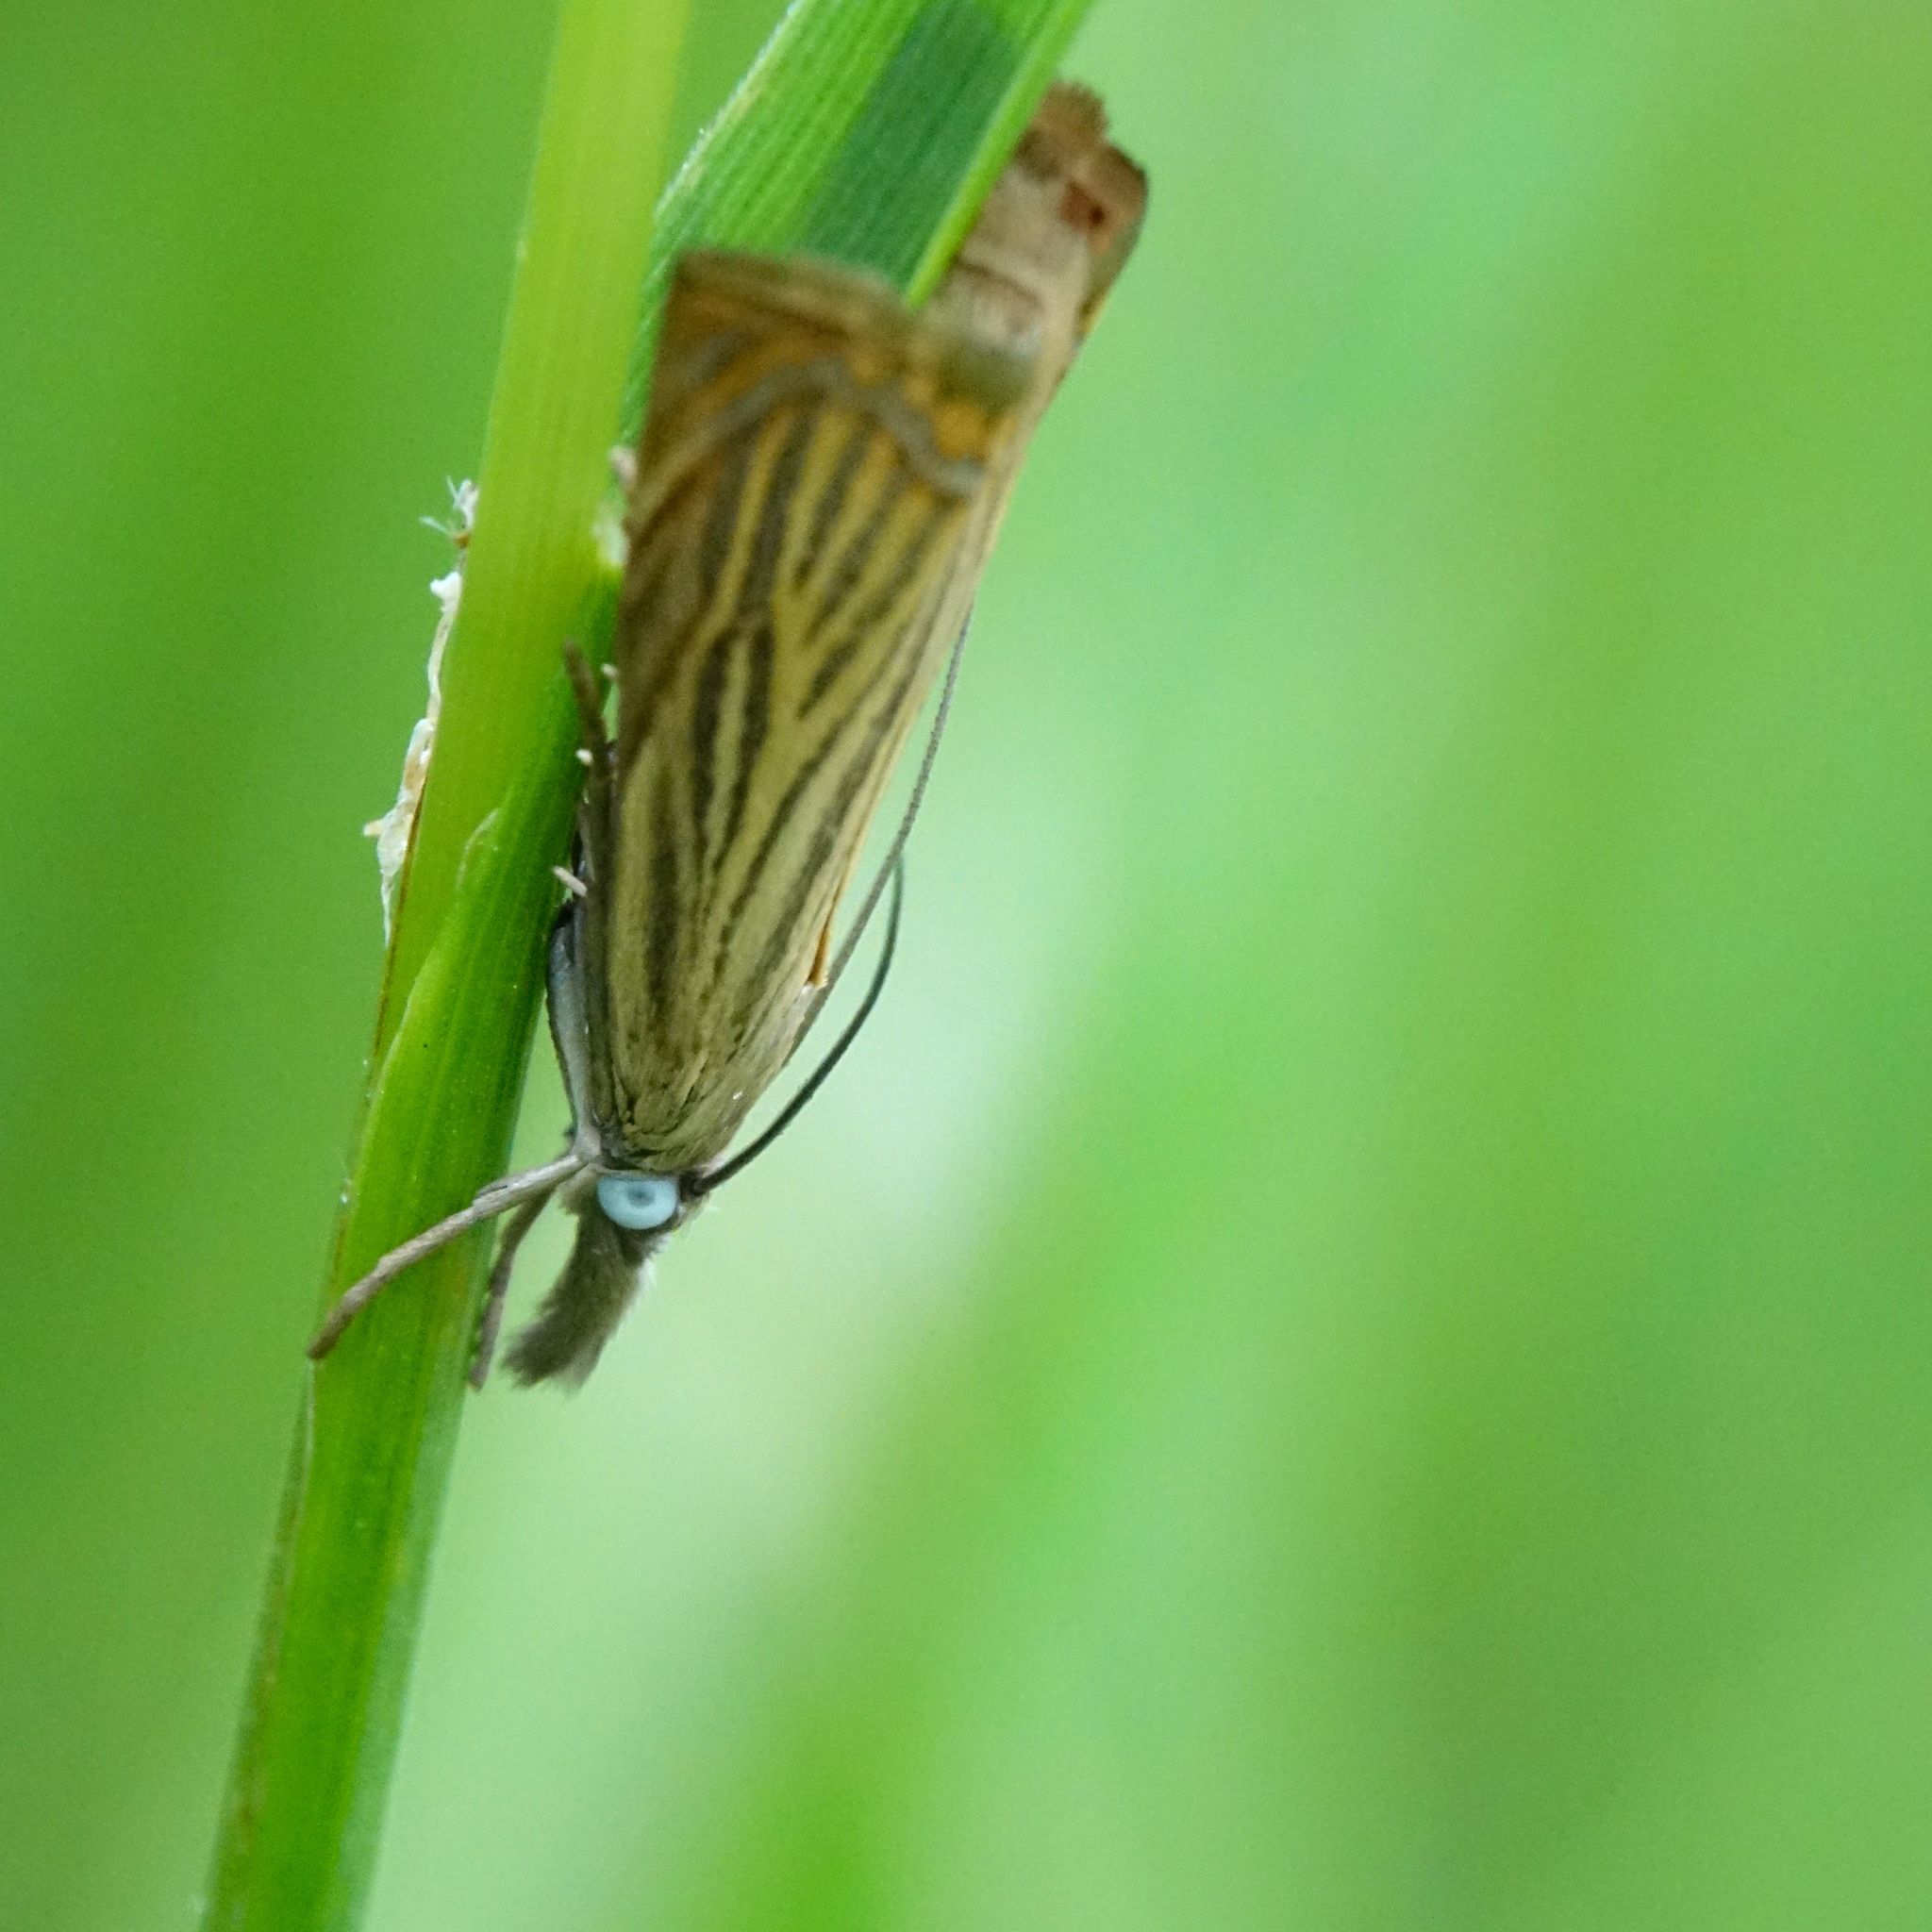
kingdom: Animalia
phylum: Arthropoda
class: Insecta
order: Lepidoptera
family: Crambidae
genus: Chrysoteuchia
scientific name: Chrysoteuchia culmella
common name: Garden grass-veneer
